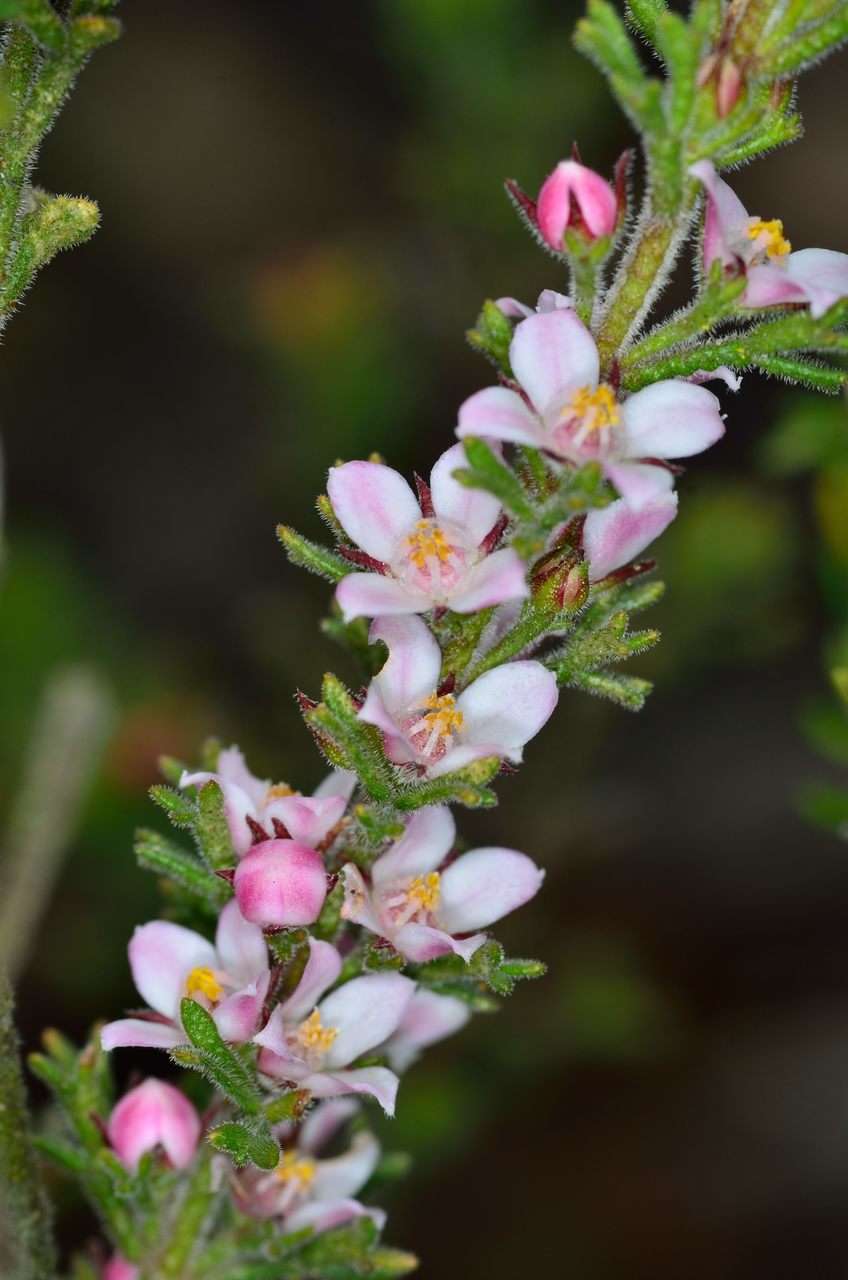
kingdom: Plantae
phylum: Tracheophyta
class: Magnoliopsida
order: Sapindales
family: Rutaceae
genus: Cyanothamnus
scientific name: Cyanothamnus anemonifolius
